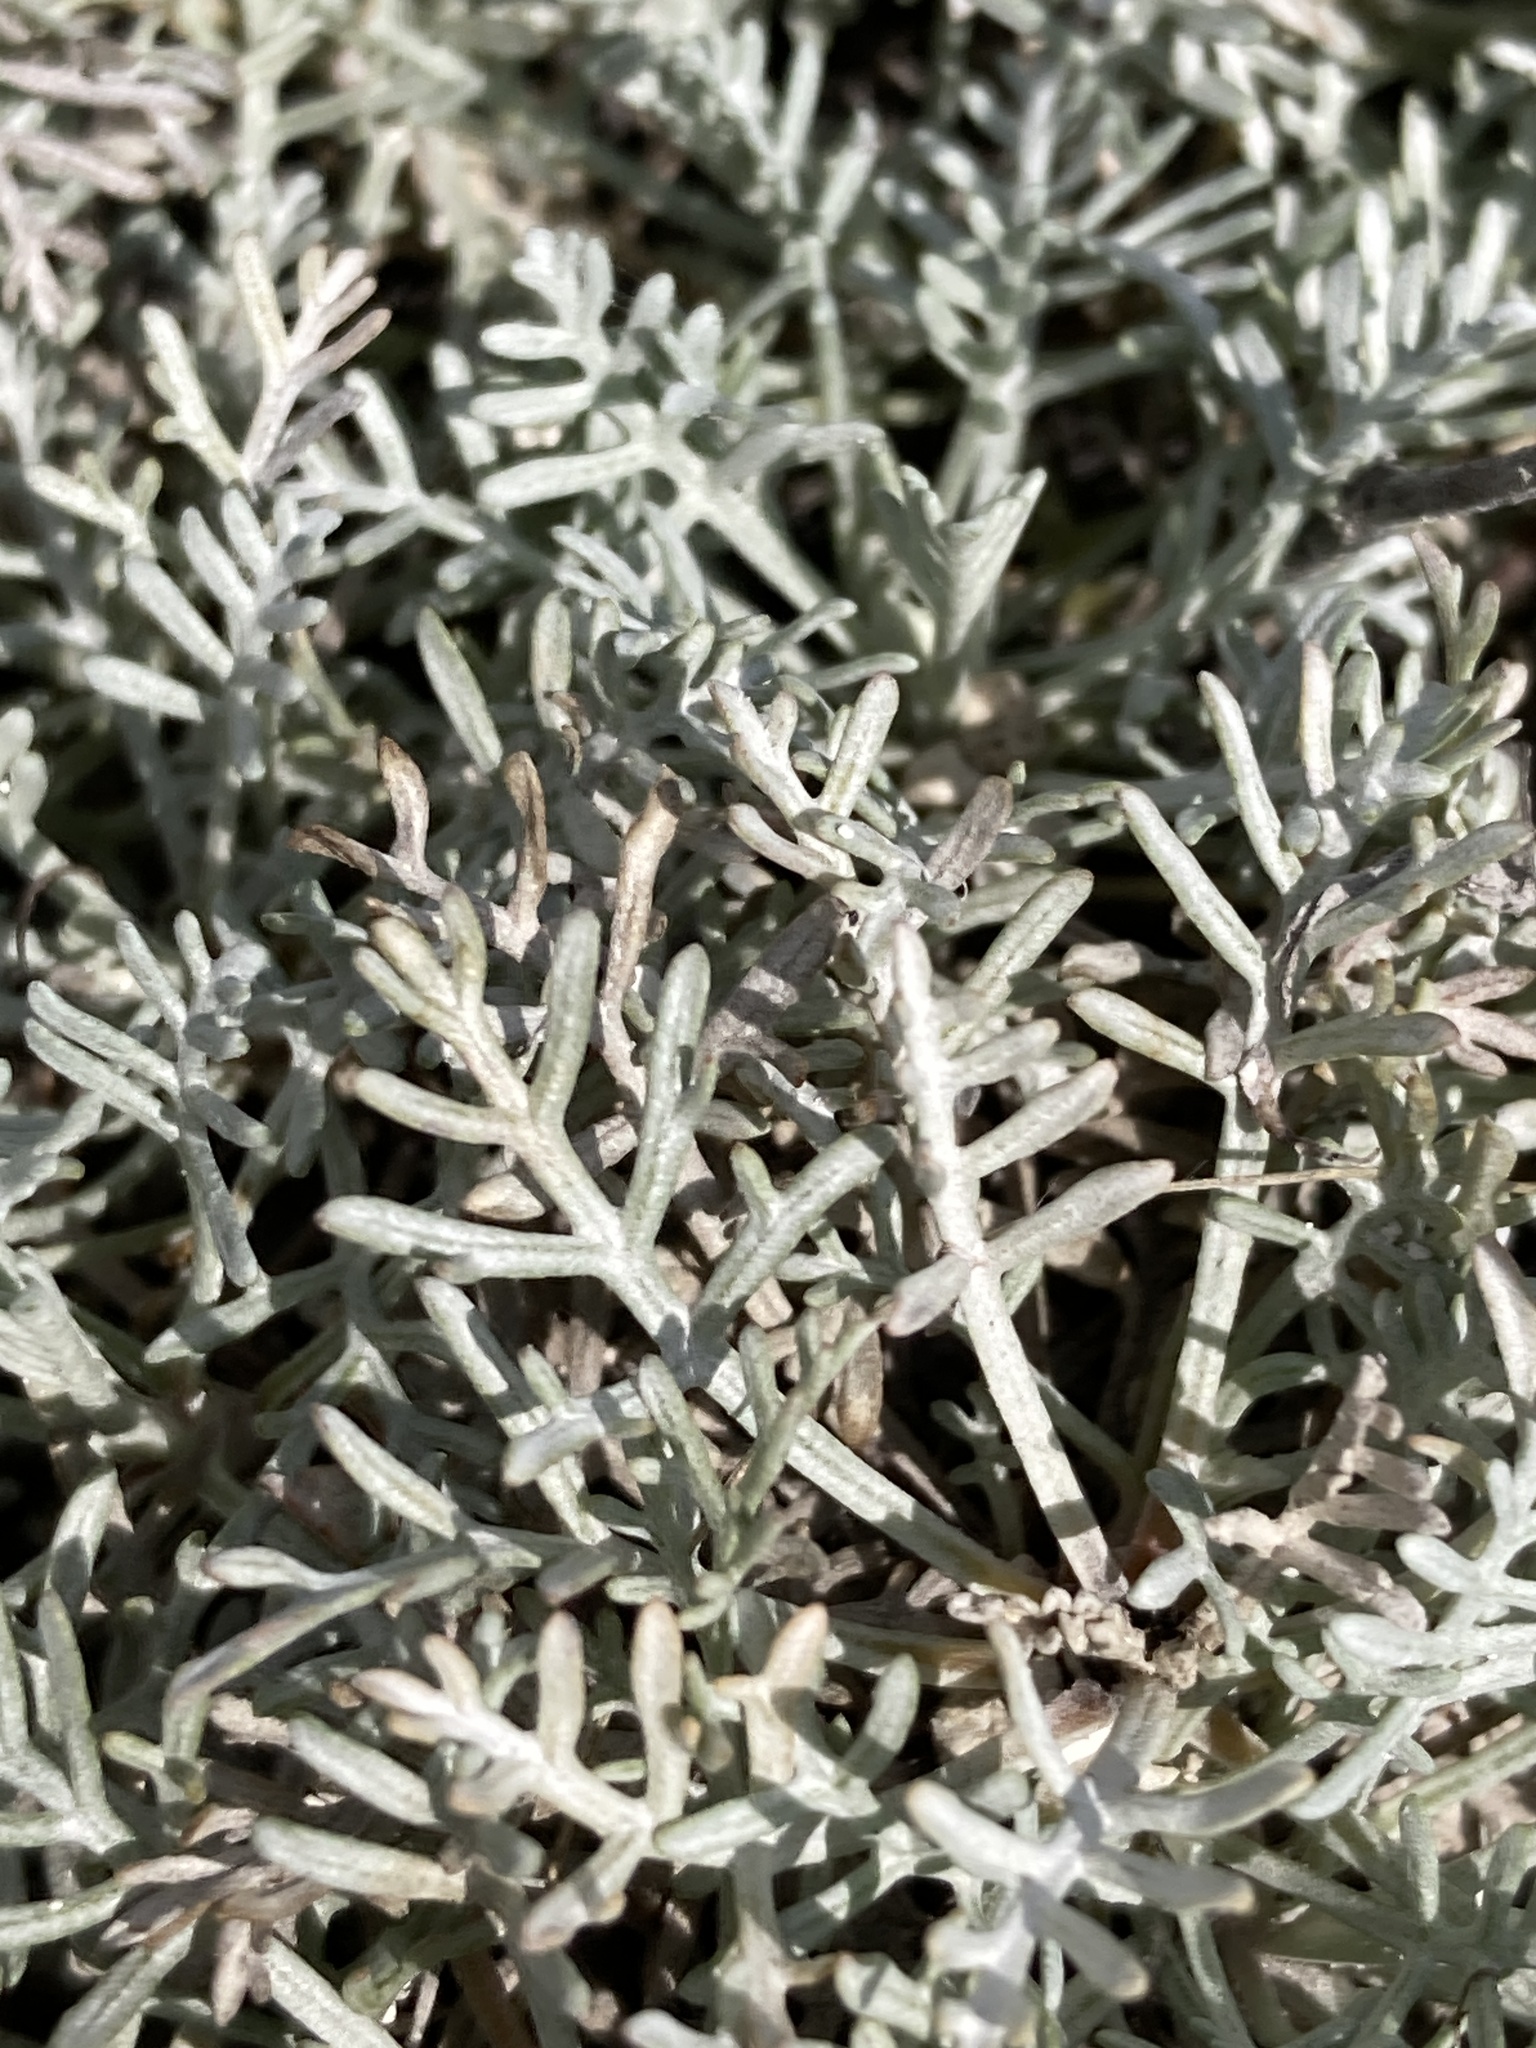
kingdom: Plantae
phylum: Tracheophyta
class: Magnoliopsida
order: Asterales
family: Asteraceae
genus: Artemisia
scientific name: Artemisia hololeuca
